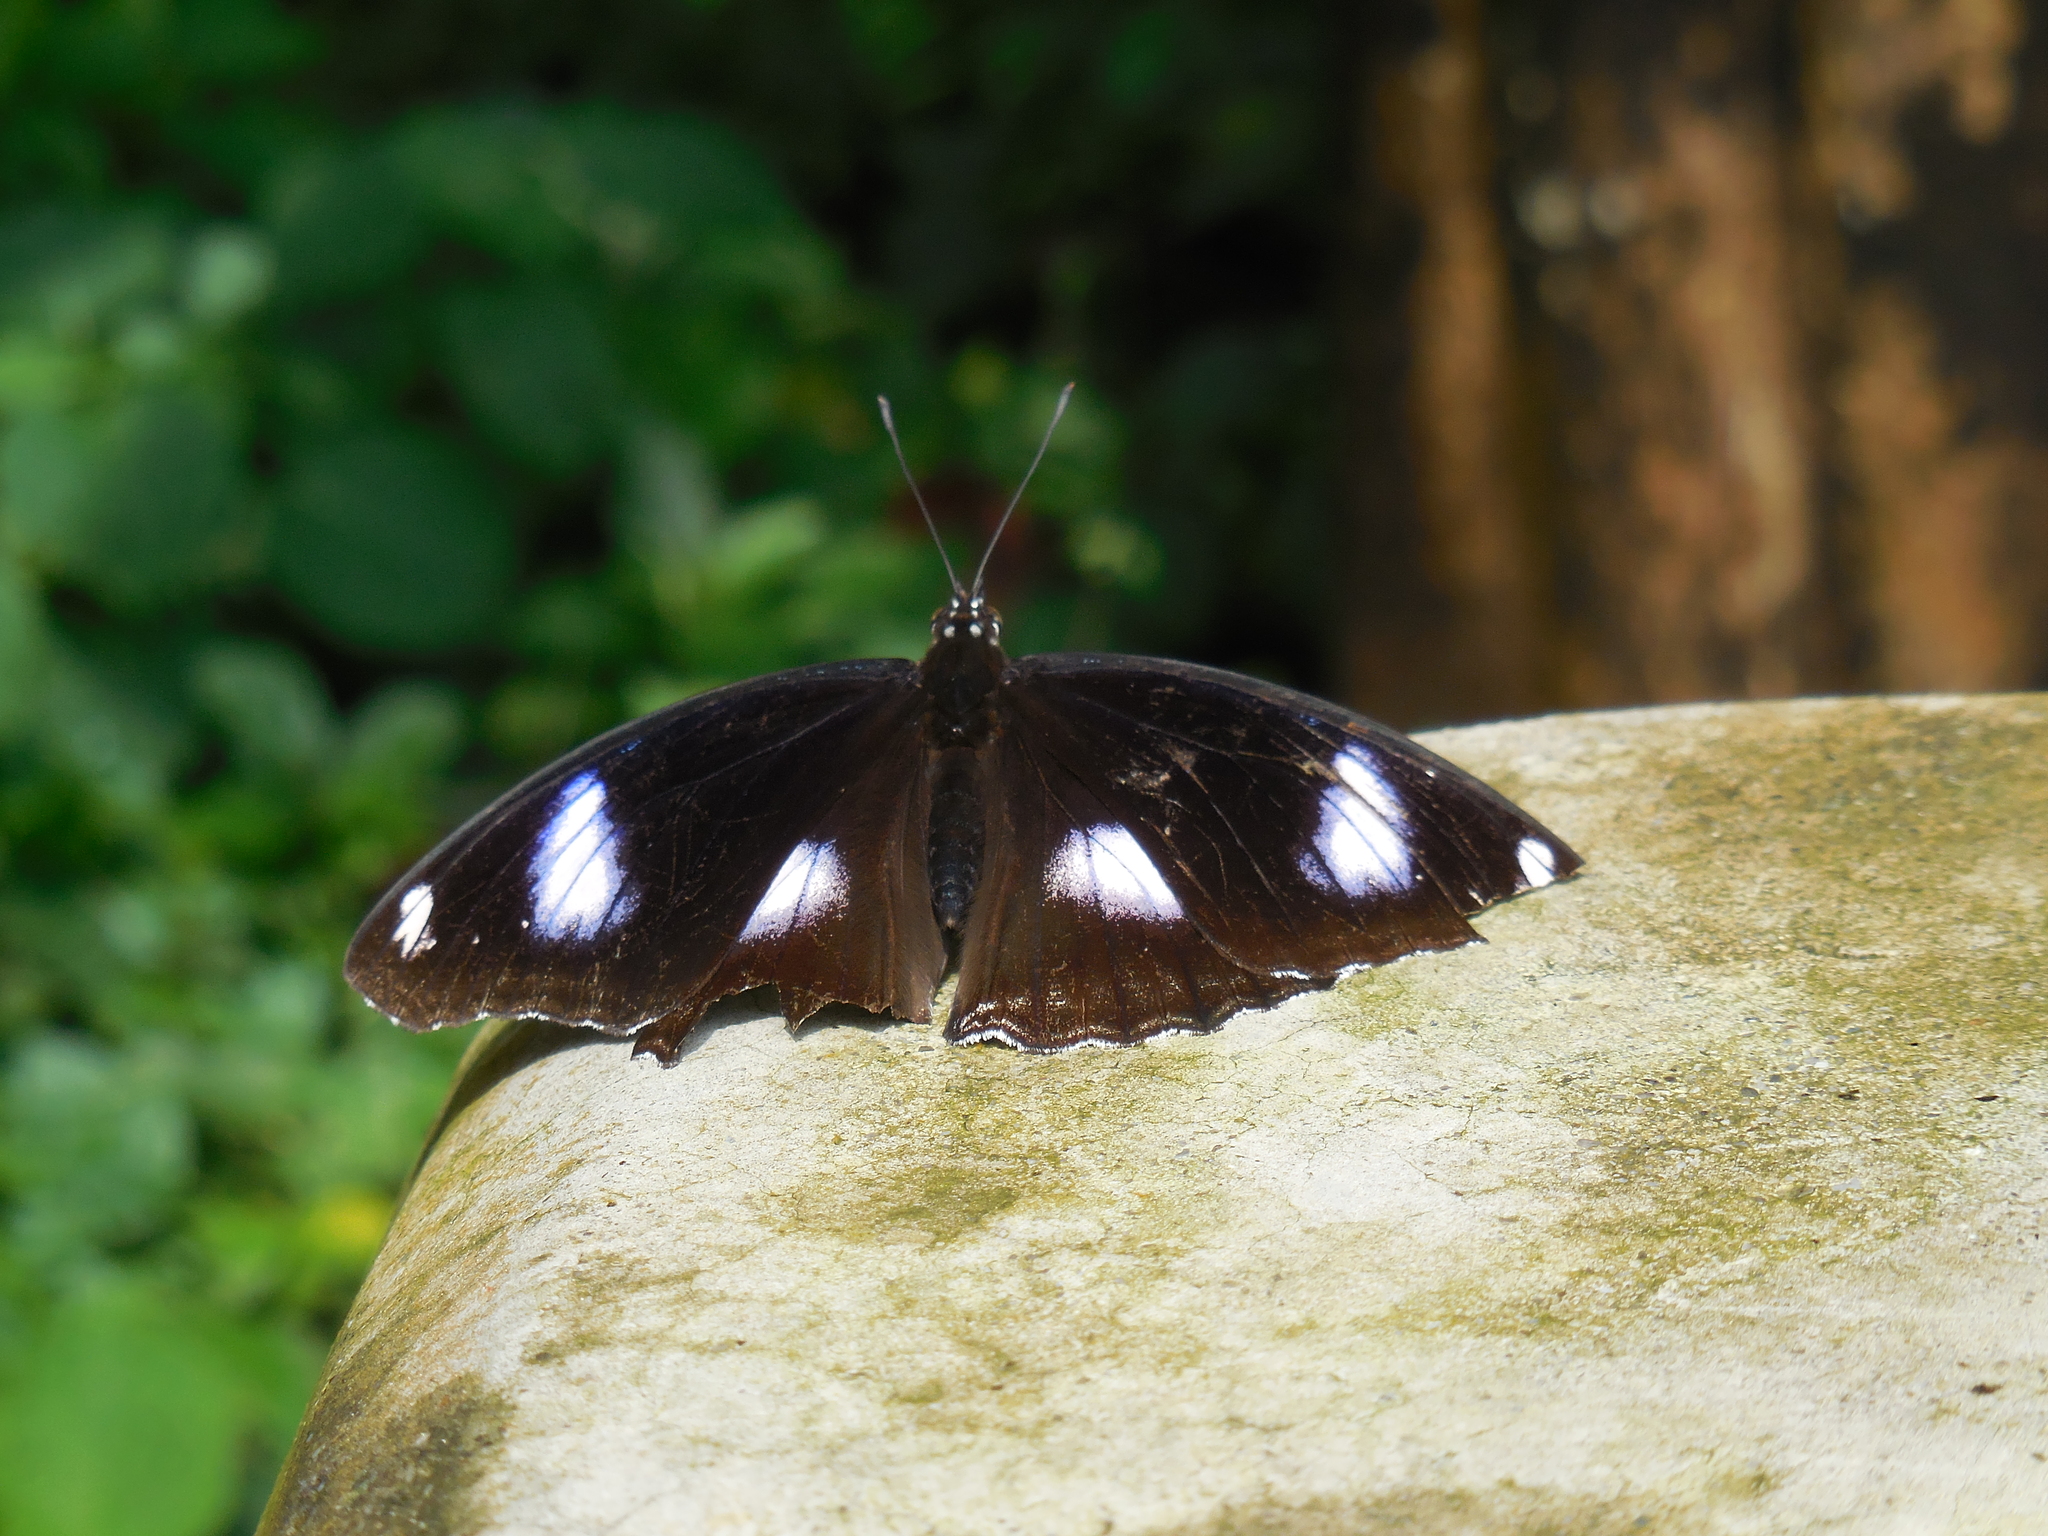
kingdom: Animalia
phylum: Arthropoda
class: Insecta
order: Lepidoptera
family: Nymphalidae
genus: Hypolimnas
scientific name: Hypolimnas bolina
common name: Great eggfly
